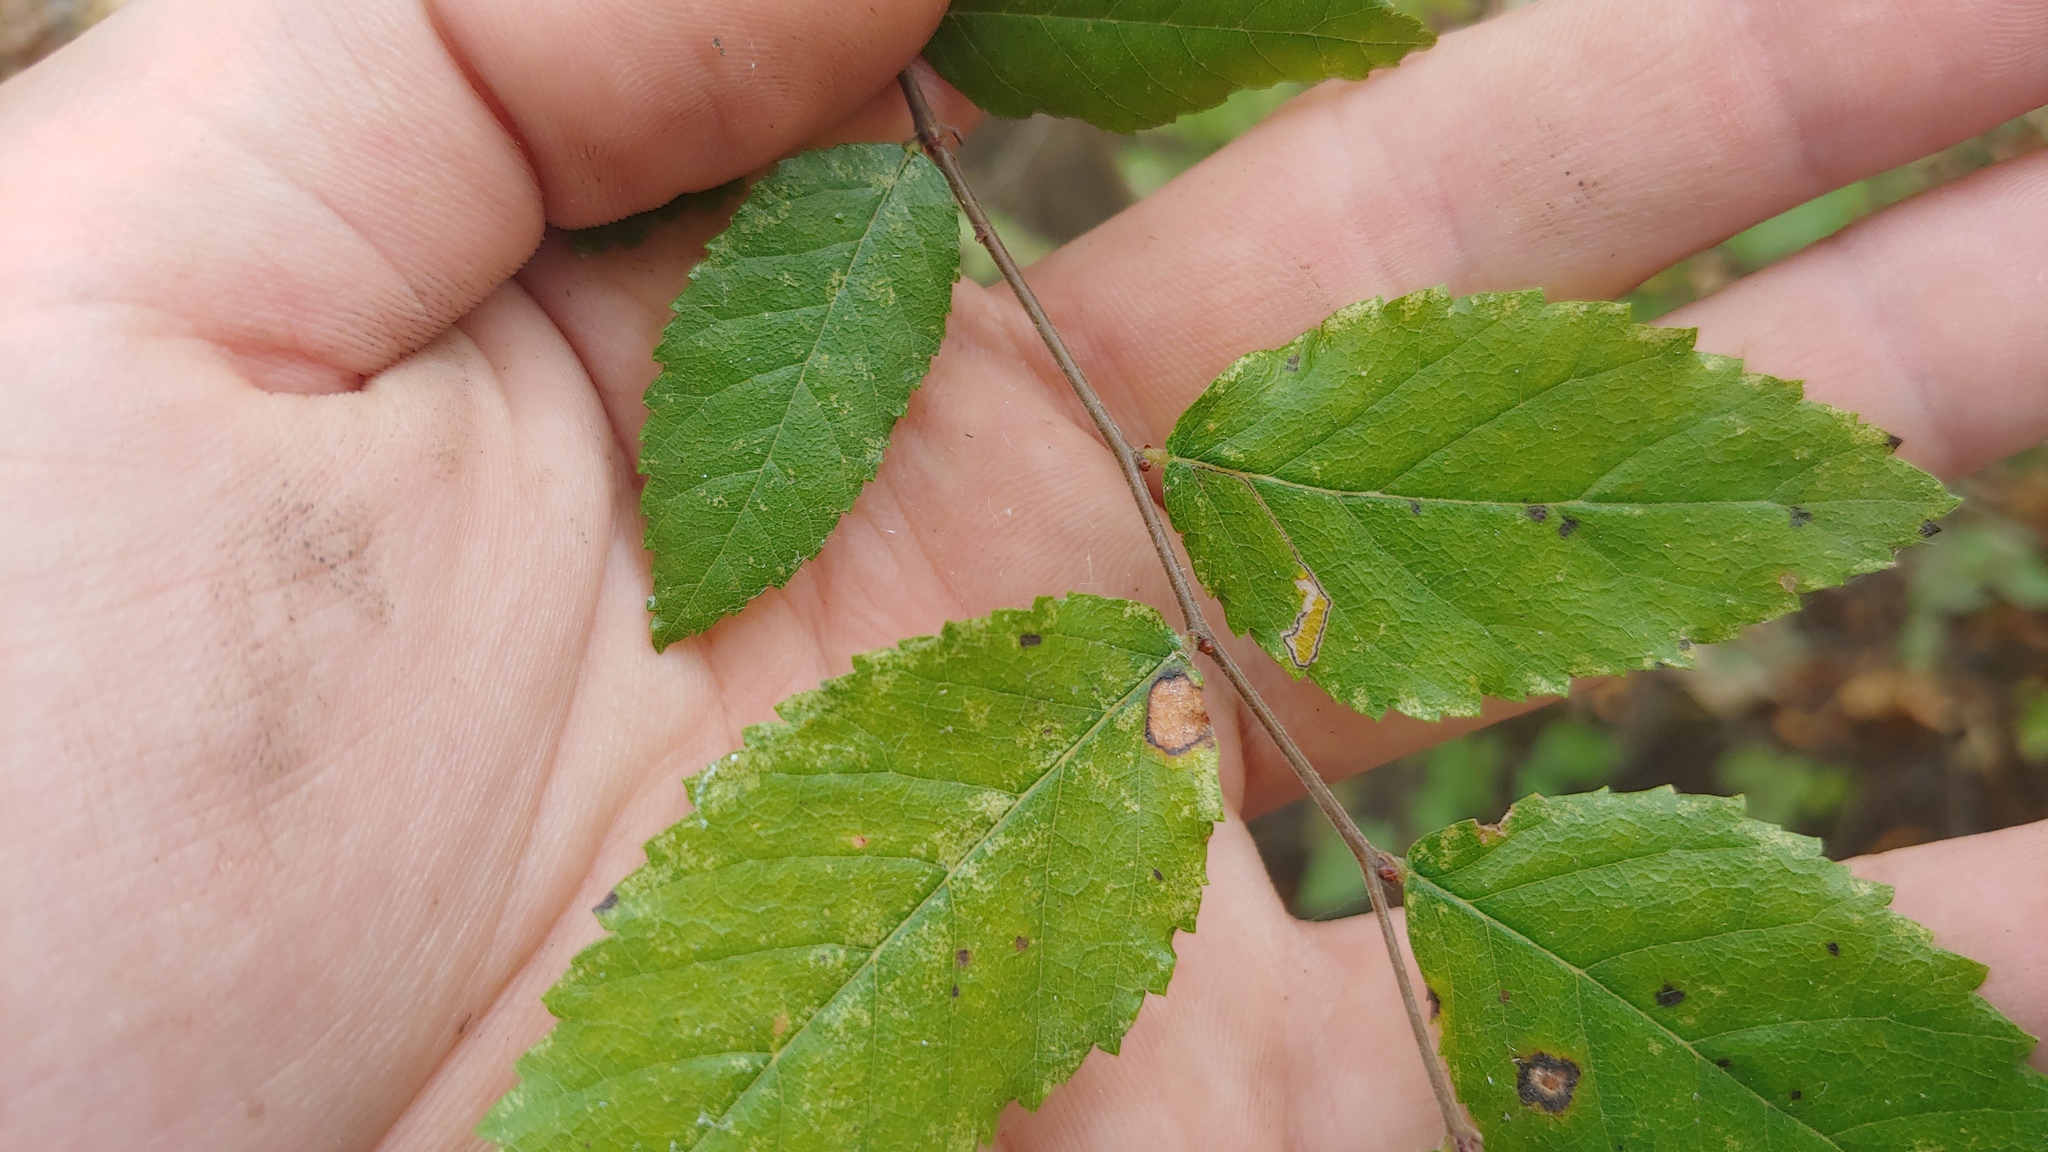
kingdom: Plantae
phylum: Tracheophyta
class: Magnoliopsida
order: Rosales
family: Ulmaceae
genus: Planera
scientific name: Planera aquatica
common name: Water-elm
